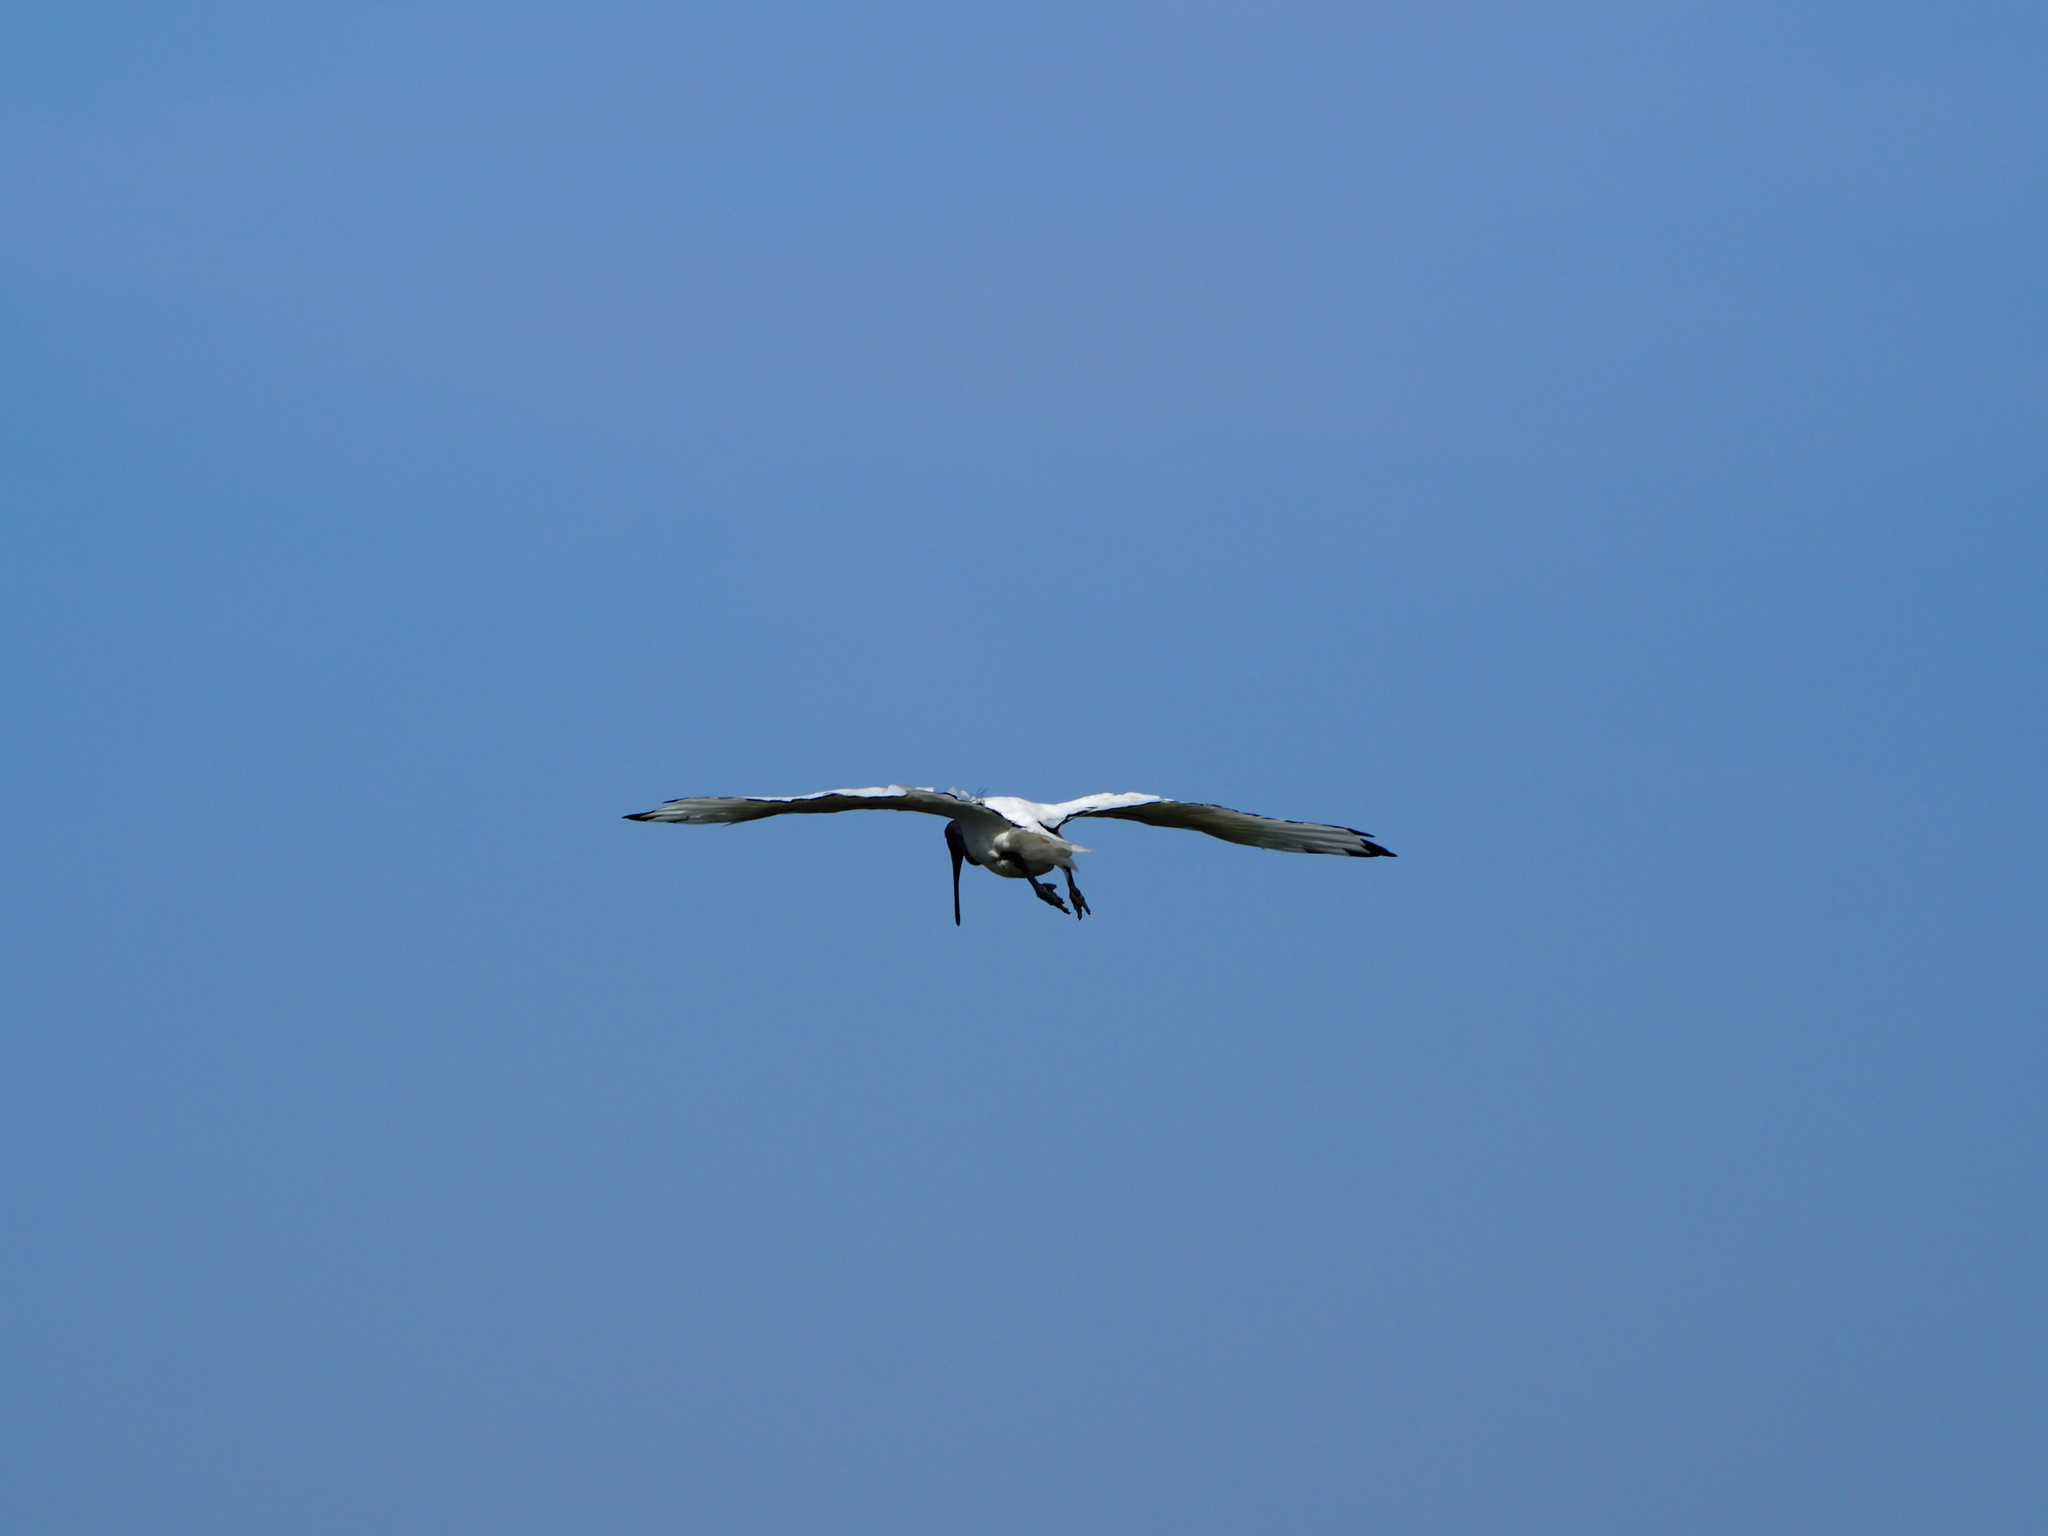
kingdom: Animalia
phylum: Chordata
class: Aves
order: Pelecaniformes
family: Threskiornithidae
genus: Threskiornis
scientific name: Threskiornis aethiopicus
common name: Sacred ibis
